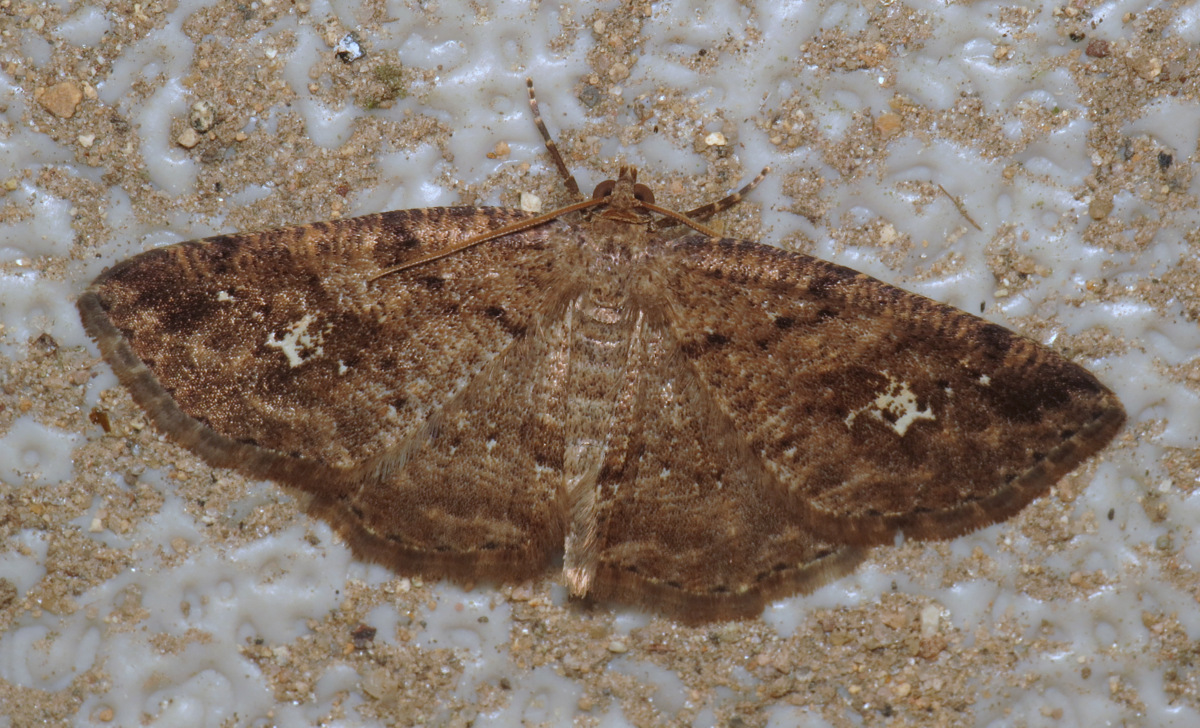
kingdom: Animalia
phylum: Arthropoda
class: Insecta
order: Lepidoptera
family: Geometridae
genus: Homochlodes
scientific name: Homochlodes fritillaria
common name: Pale homochlodes
